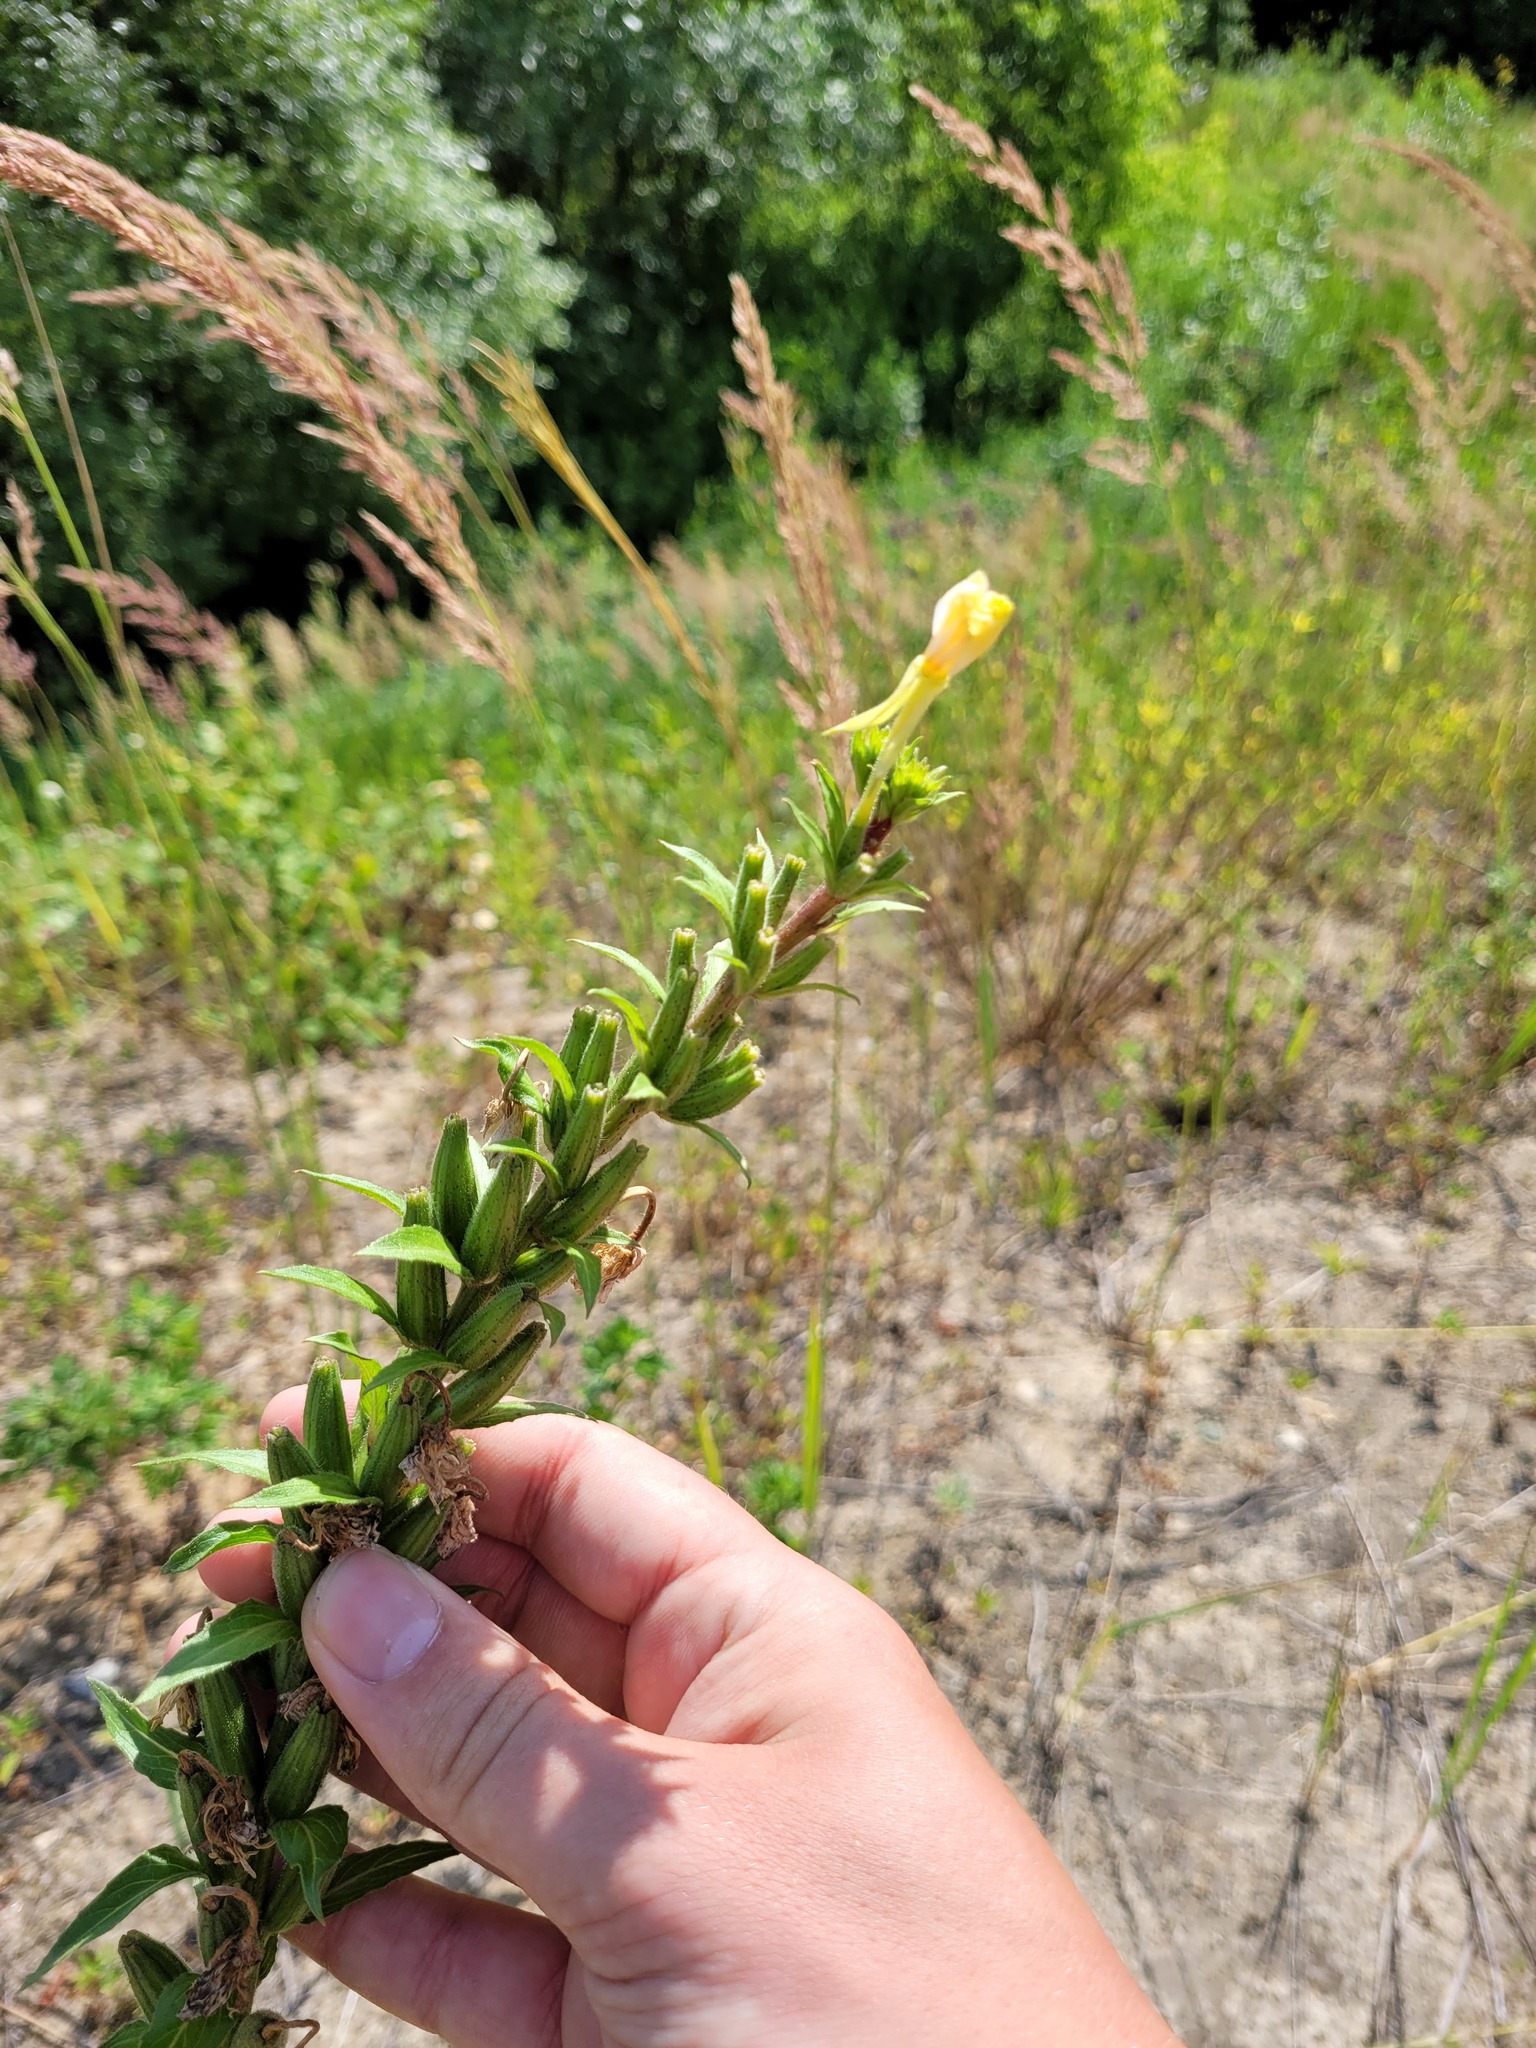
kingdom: Plantae
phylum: Tracheophyta
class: Magnoliopsida
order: Myrtales
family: Onagraceae
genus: Oenothera
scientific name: Oenothera rubricaulis
